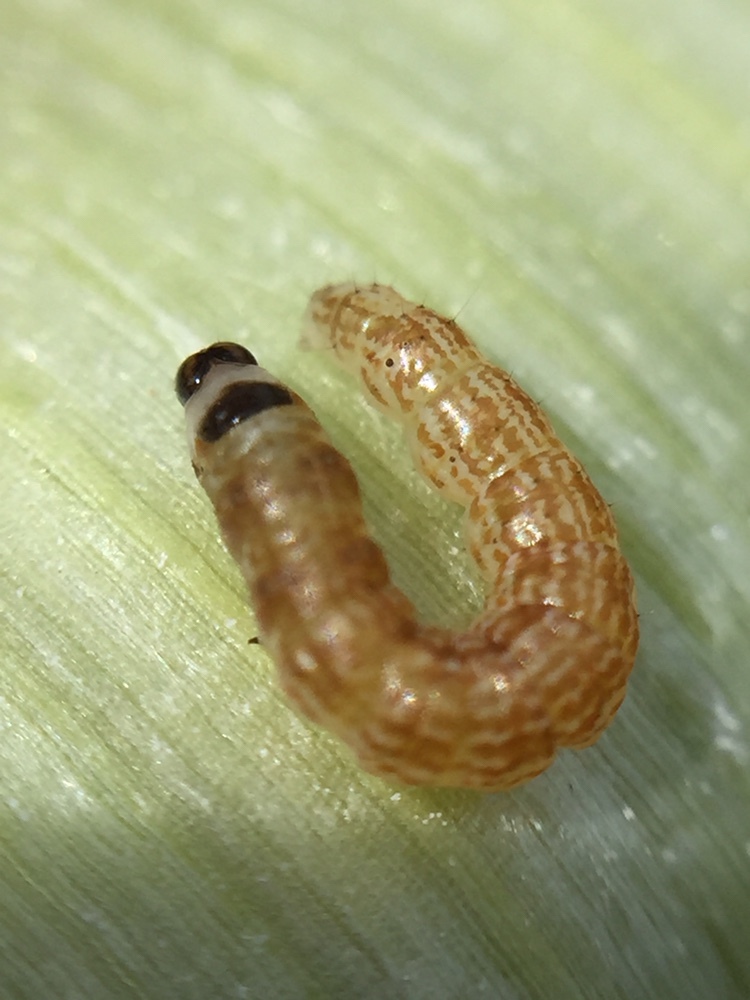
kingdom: Animalia
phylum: Arthropoda
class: Insecta
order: Lepidoptera
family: Pyralidae
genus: Macrorrhinia
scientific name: Macrorrhinia endonephele
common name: Alligator weed stemborer moth
